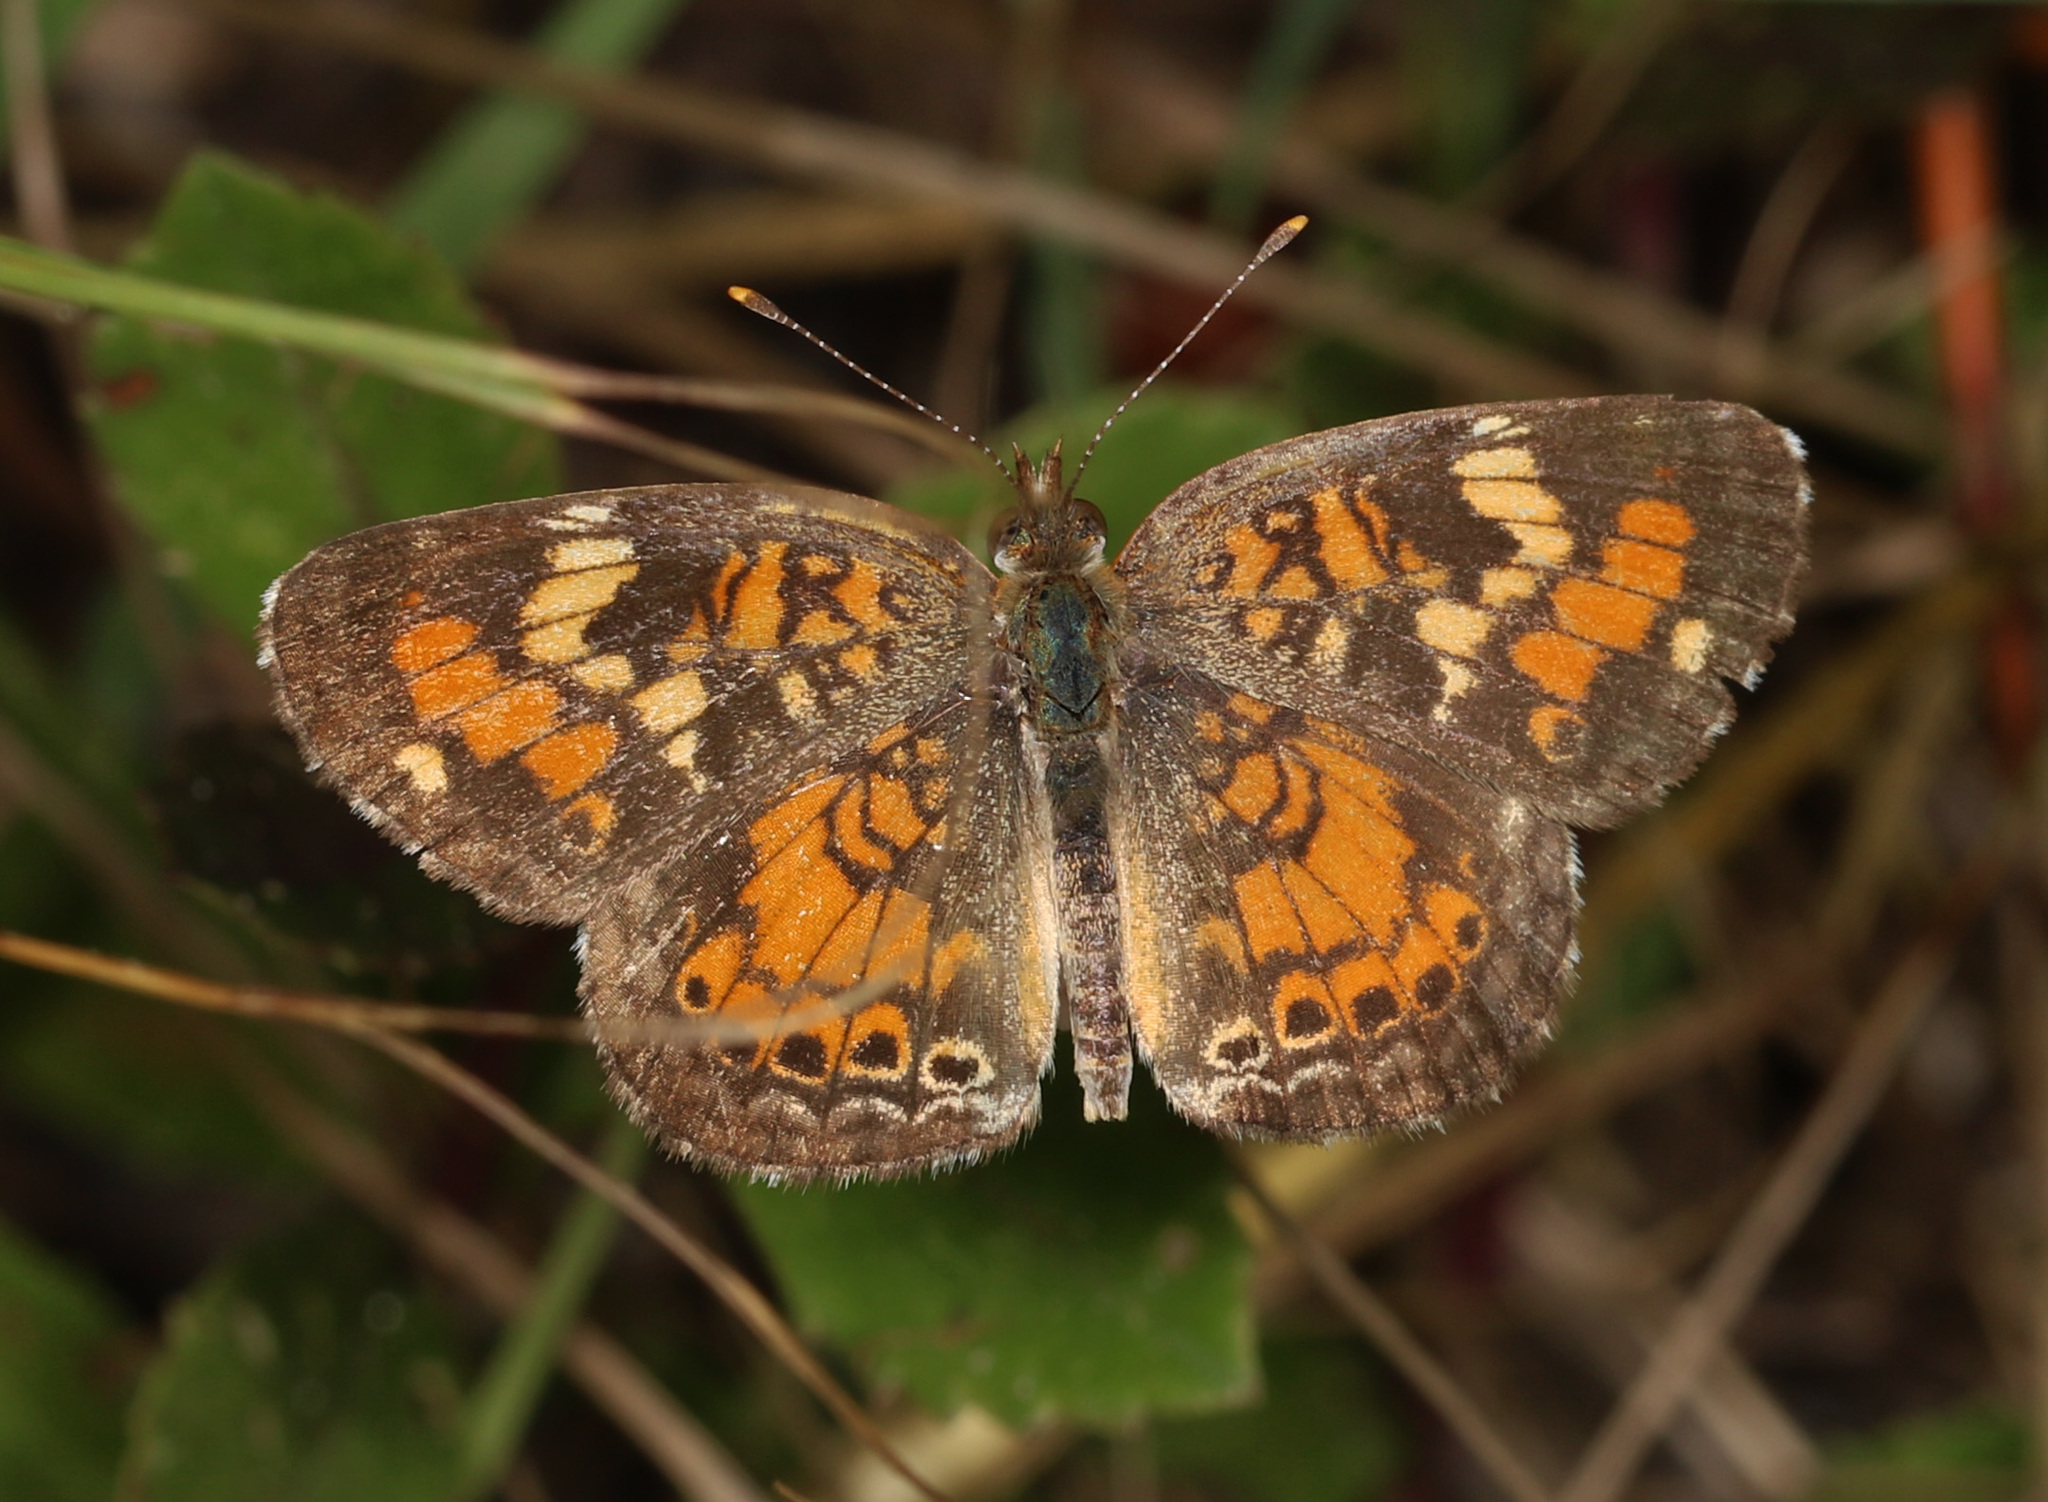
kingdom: Animalia
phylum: Arthropoda
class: Insecta
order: Lepidoptera
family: Nymphalidae
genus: Phyciodes
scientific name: Phyciodes phaon
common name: Phaon crescent
